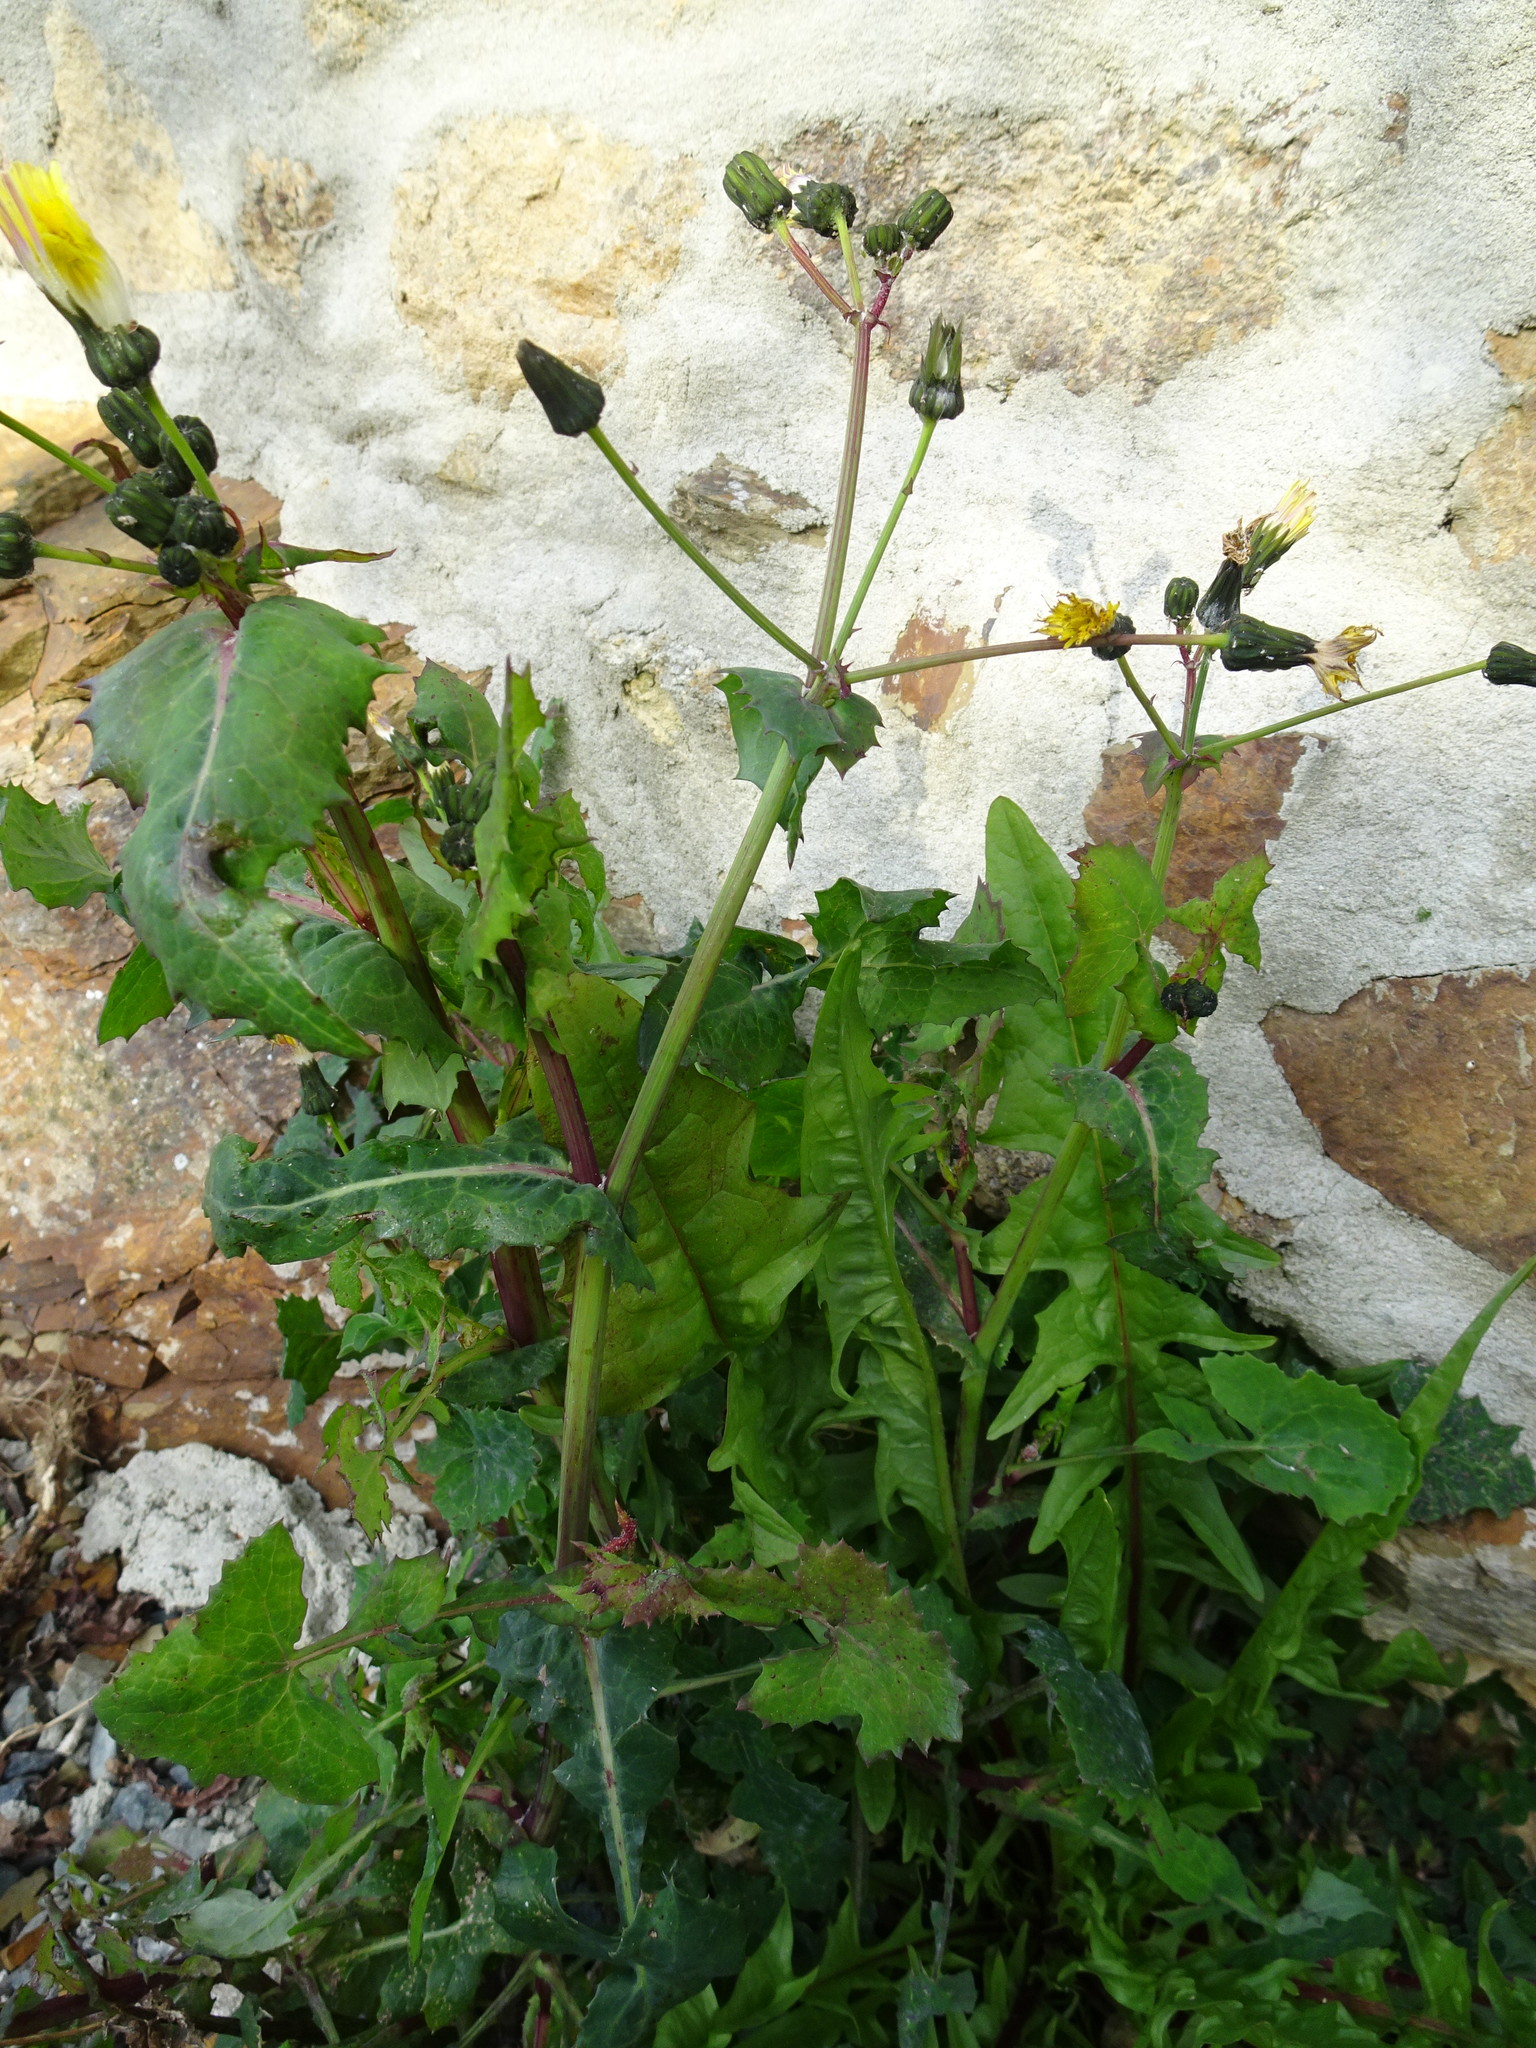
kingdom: Plantae
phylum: Tracheophyta
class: Magnoliopsida
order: Asterales
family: Asteraceae
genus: Sonchus
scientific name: Sonchus oleraceus
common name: Common sowthistle
